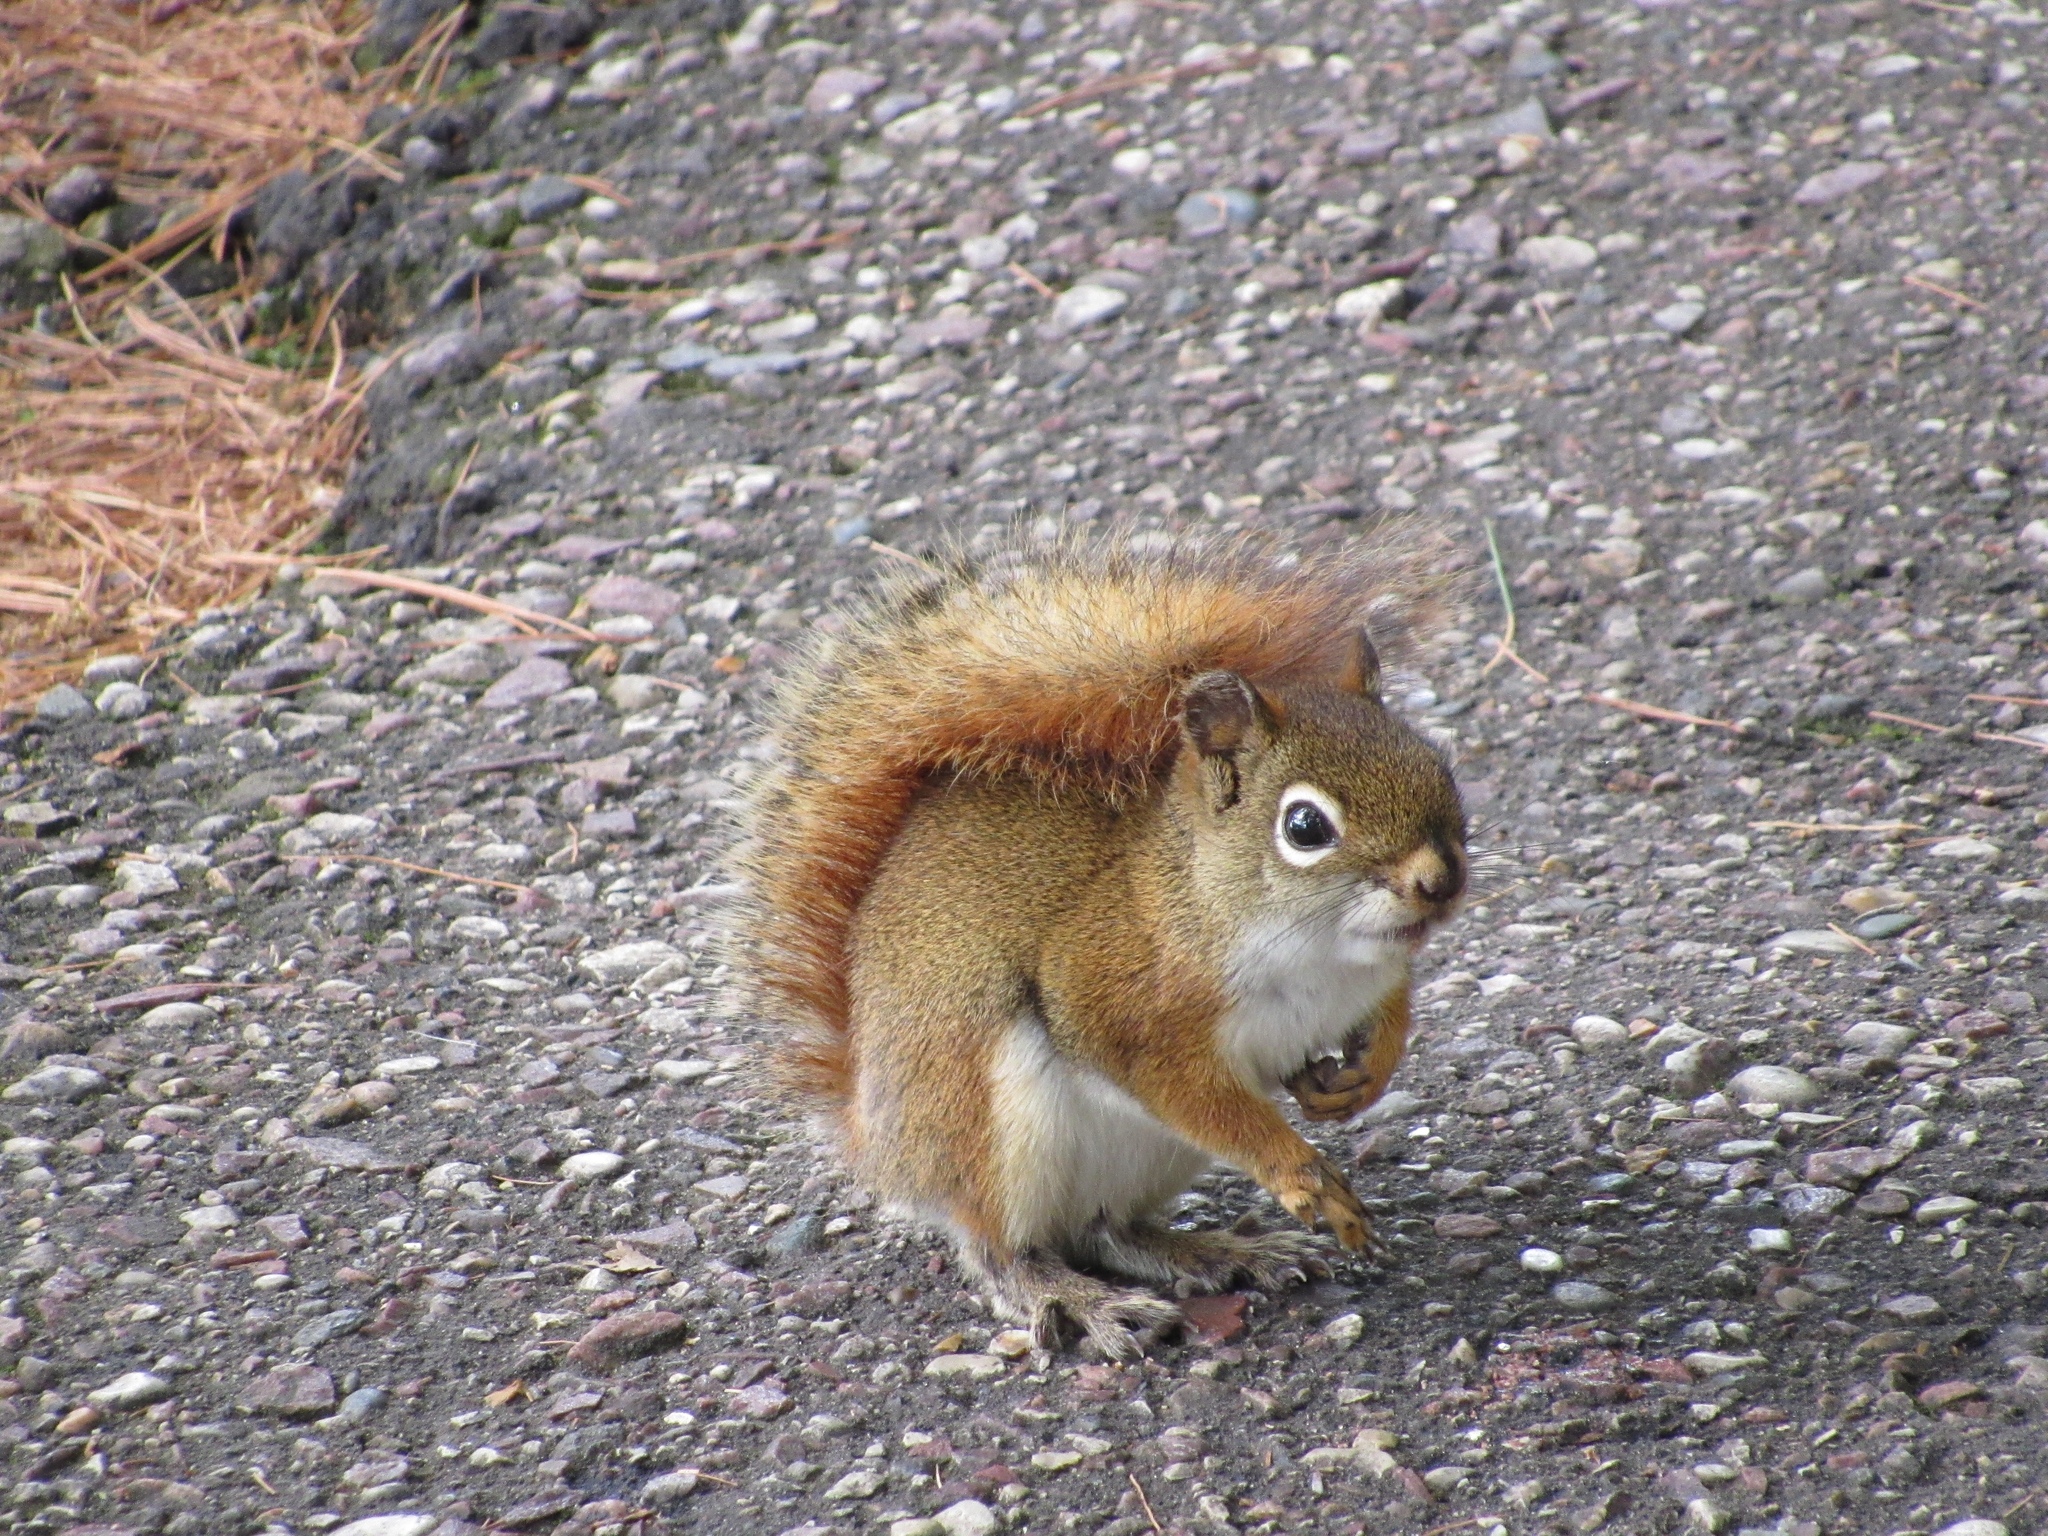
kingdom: Animalia
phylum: Chordata
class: Mammalia
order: Rodentia
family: Sciuridae
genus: Tamiasciurus
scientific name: Tamiasciurus hudsonicus
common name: Red squirrel
